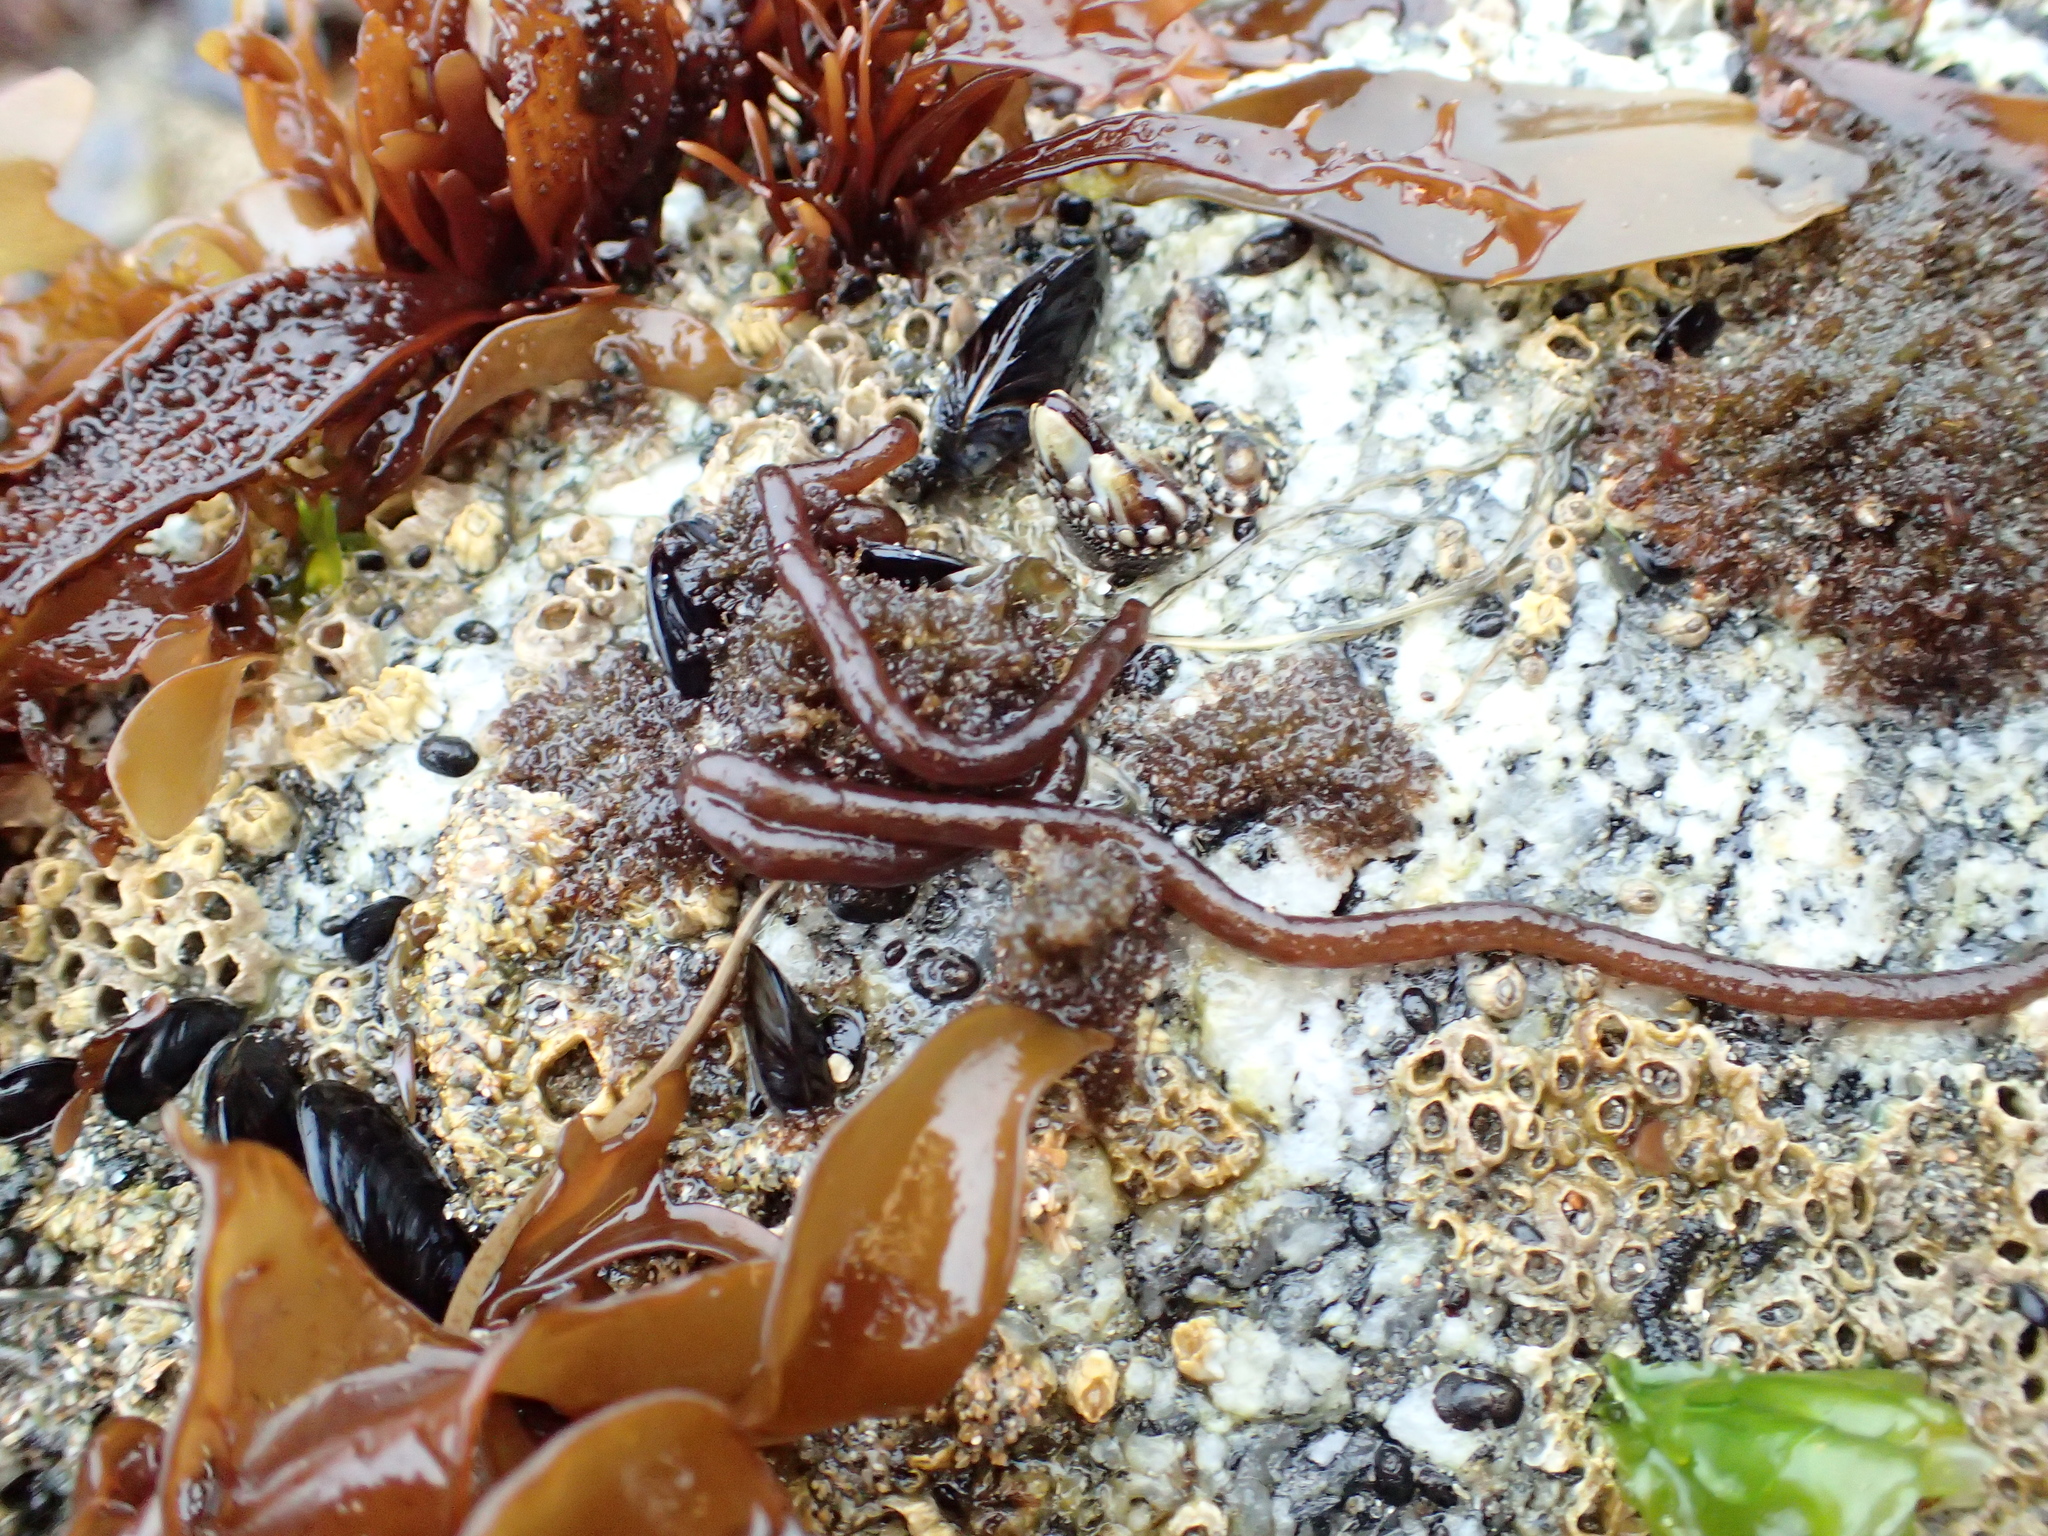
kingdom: Plantae
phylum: Rhodophyta
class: Florideophyceae
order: Nemaliales
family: Nemaliaceae
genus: Nemalion
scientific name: Nemalion elminthoides
